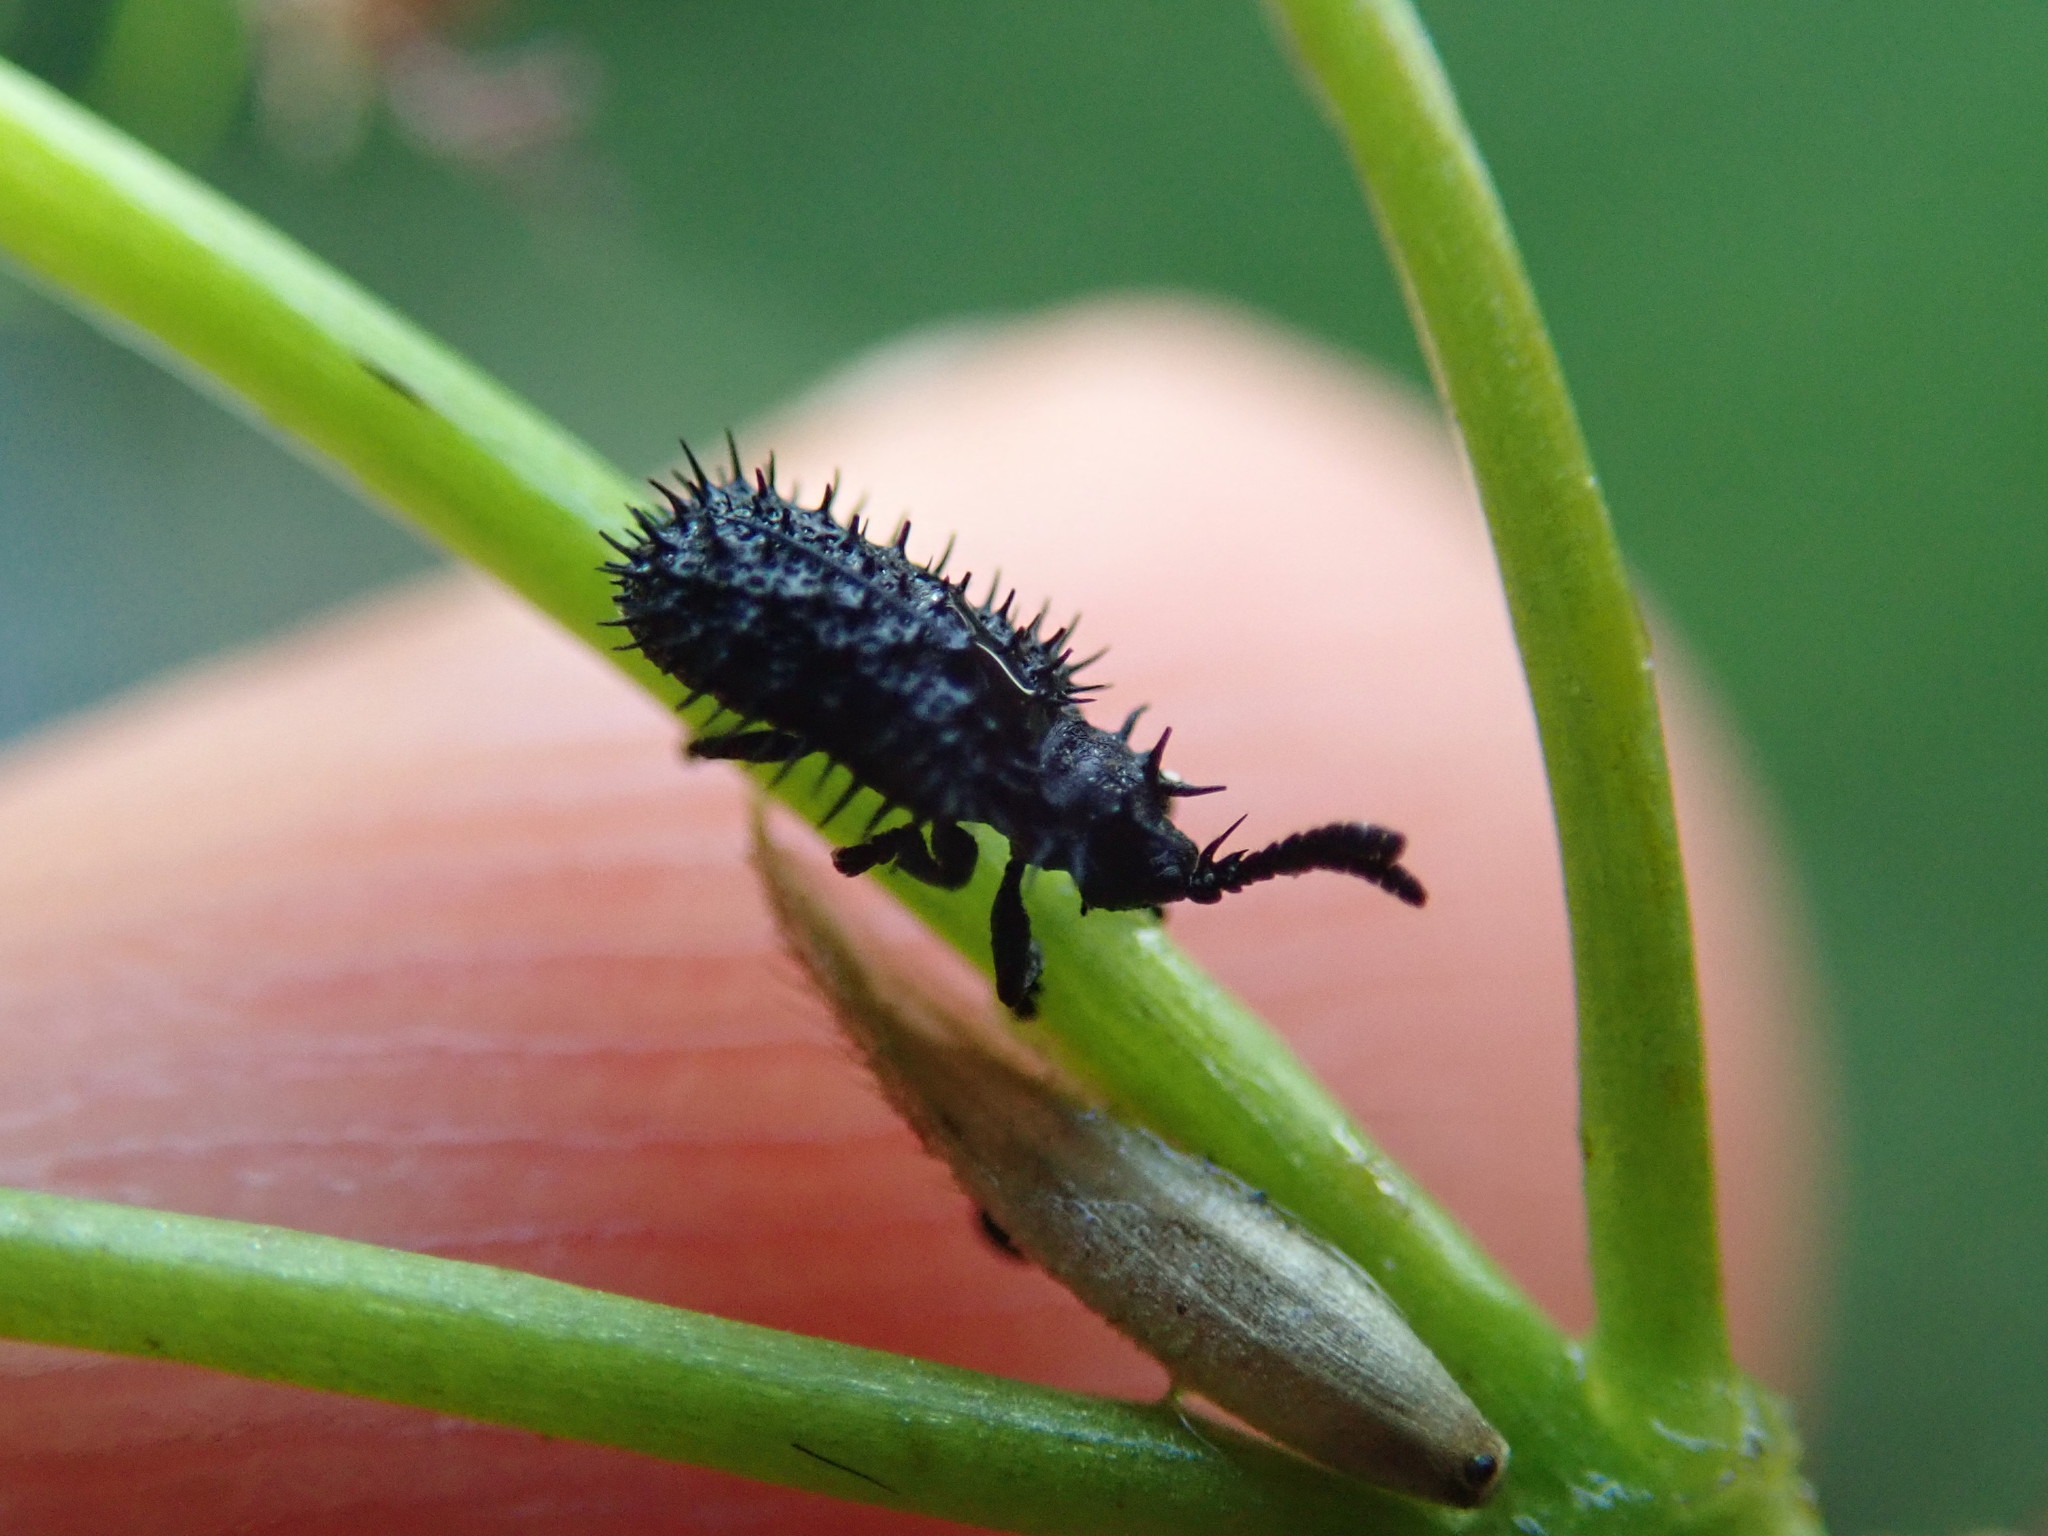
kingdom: Animalia
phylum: Arthropoda
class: Insecta
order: Coleoptera
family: Chrysomelidae
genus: Hispa
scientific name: Hispa atra
